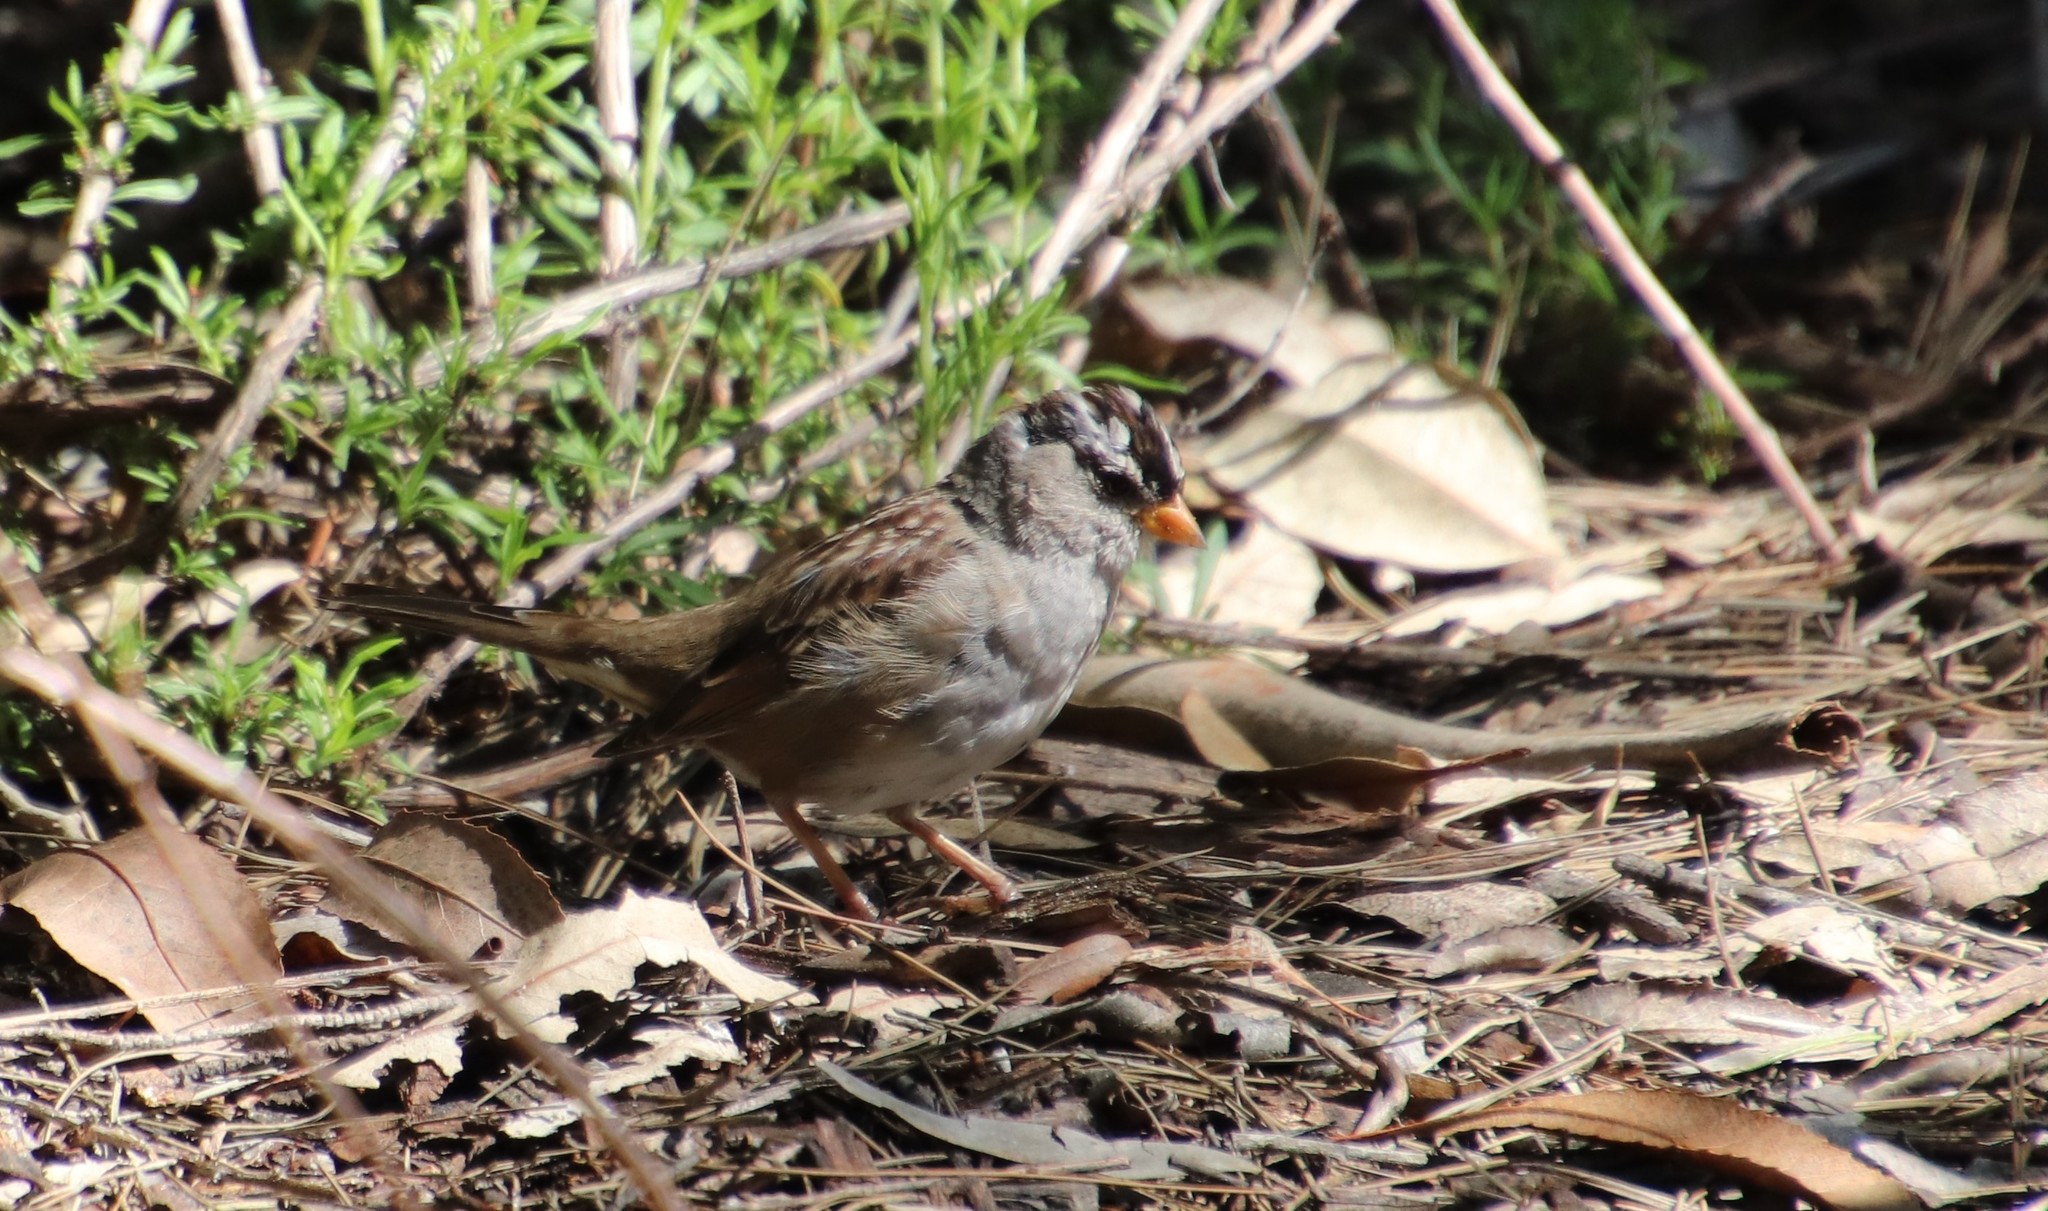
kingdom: Animalia
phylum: Chordata
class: Aves
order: Passeriformes
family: Passerellidae
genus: Zonotrichia
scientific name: Zonotrichia leucophrys
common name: White-crowned sparrow
